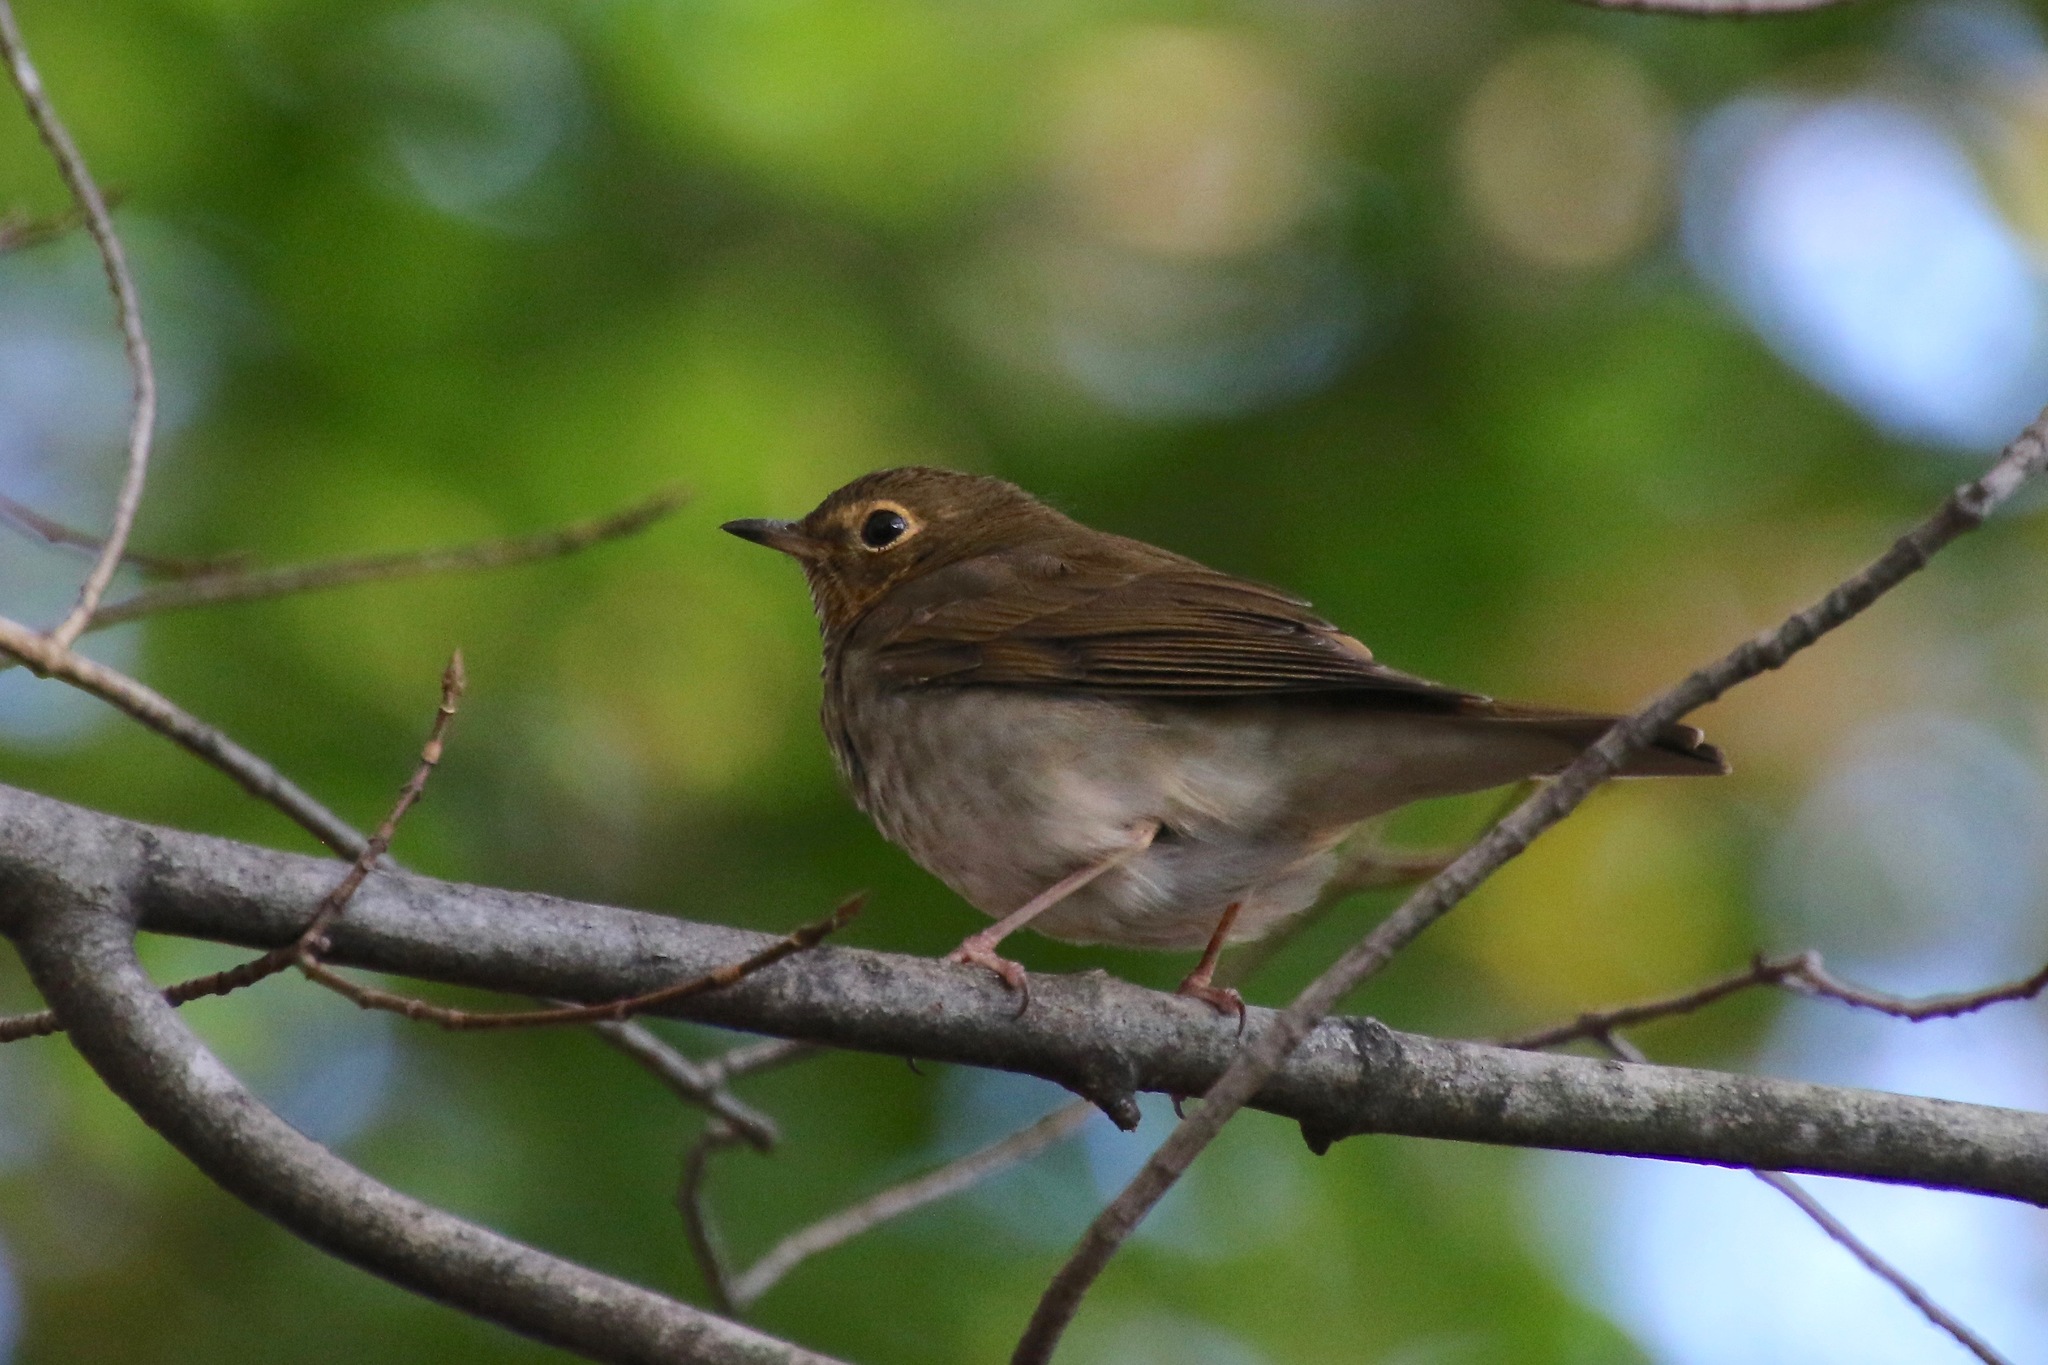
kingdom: Animalia
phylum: Chordata
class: Aves
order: Passeriformes
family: Turdidae
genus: Catharus
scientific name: Catharus ustulatus
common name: Swainson's thrush
